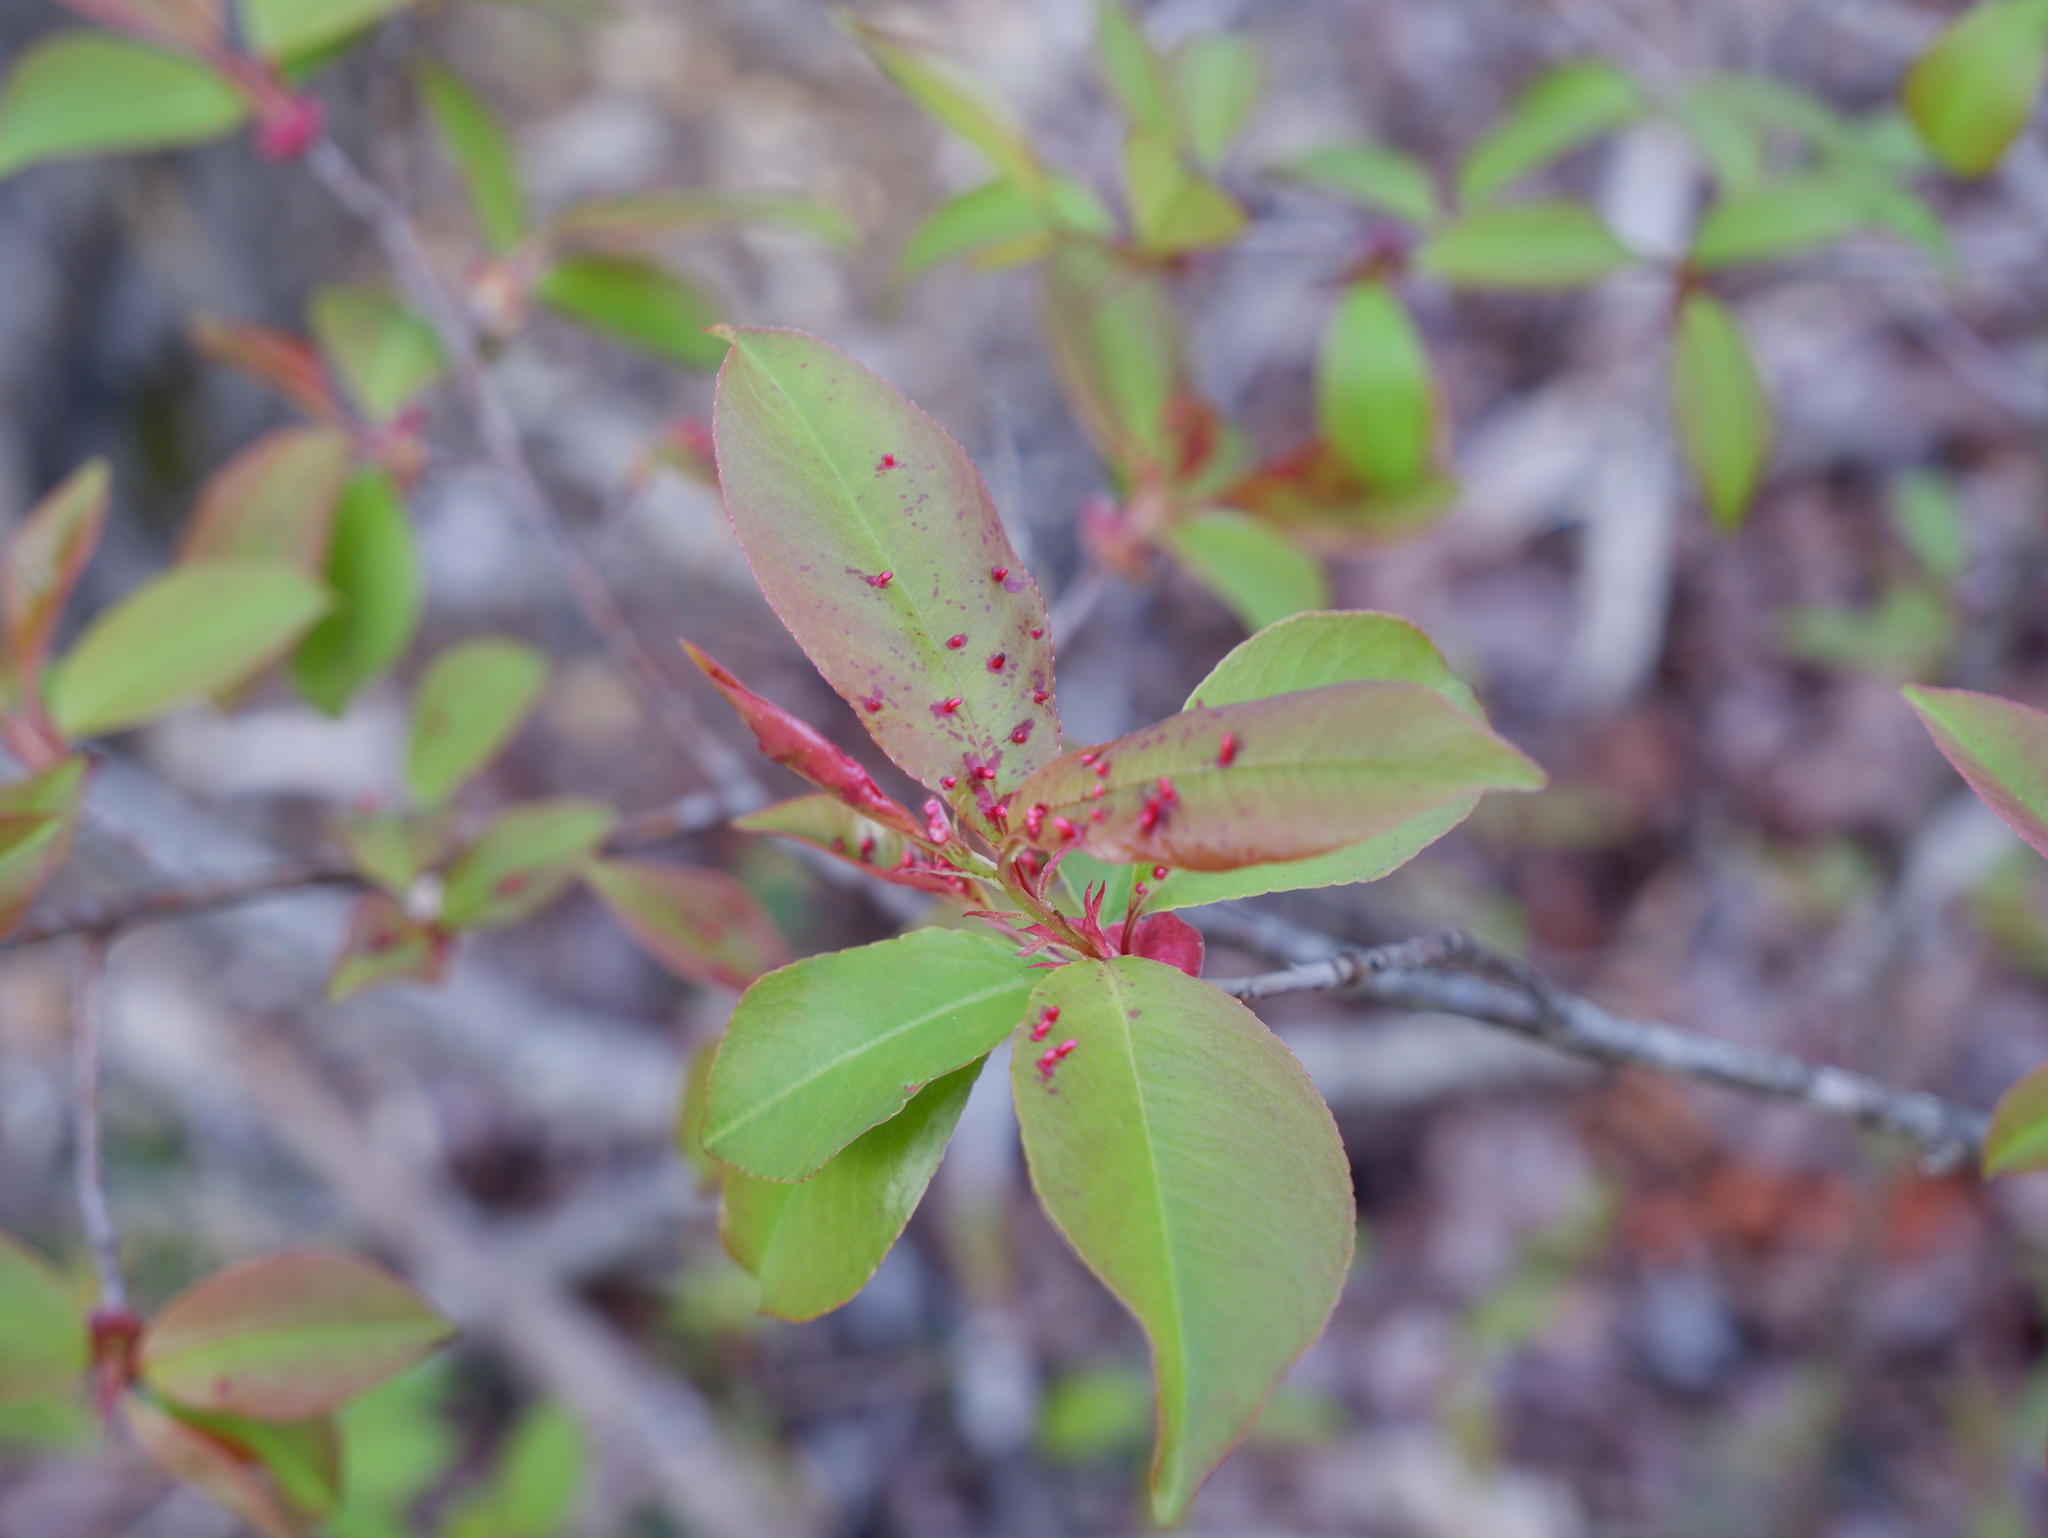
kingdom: Animalia
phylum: Arthropoda
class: Arachnida
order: Trombidiformes
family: Eriophyidae
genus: Eriophyes
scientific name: Eriophyes
